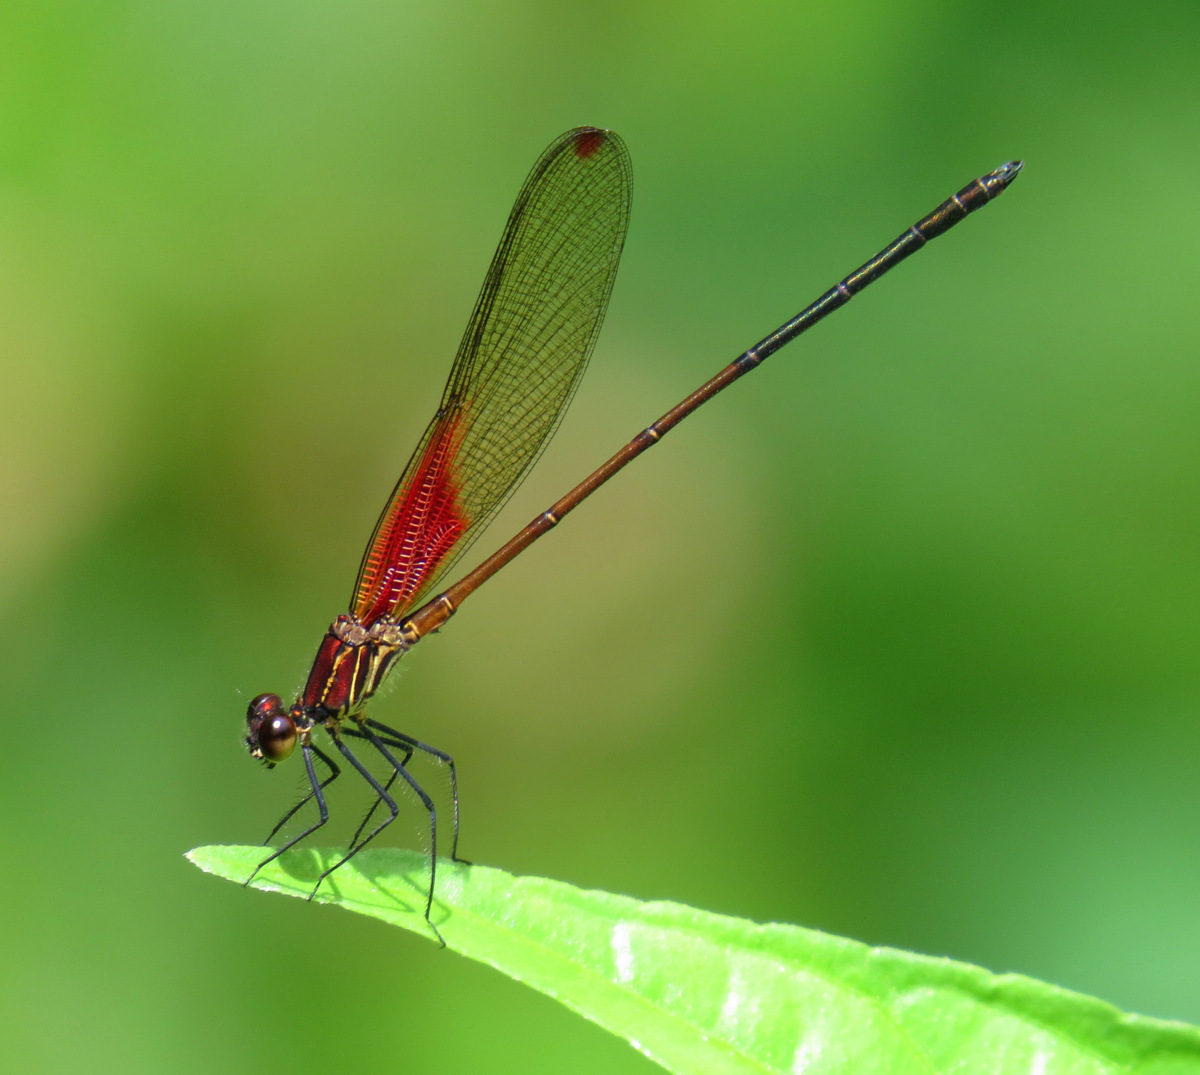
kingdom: Animalia
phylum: Arthropoda
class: Insecta
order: Odonata
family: Calopterygidae
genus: Hetaerina
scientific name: Hetaerina caja
